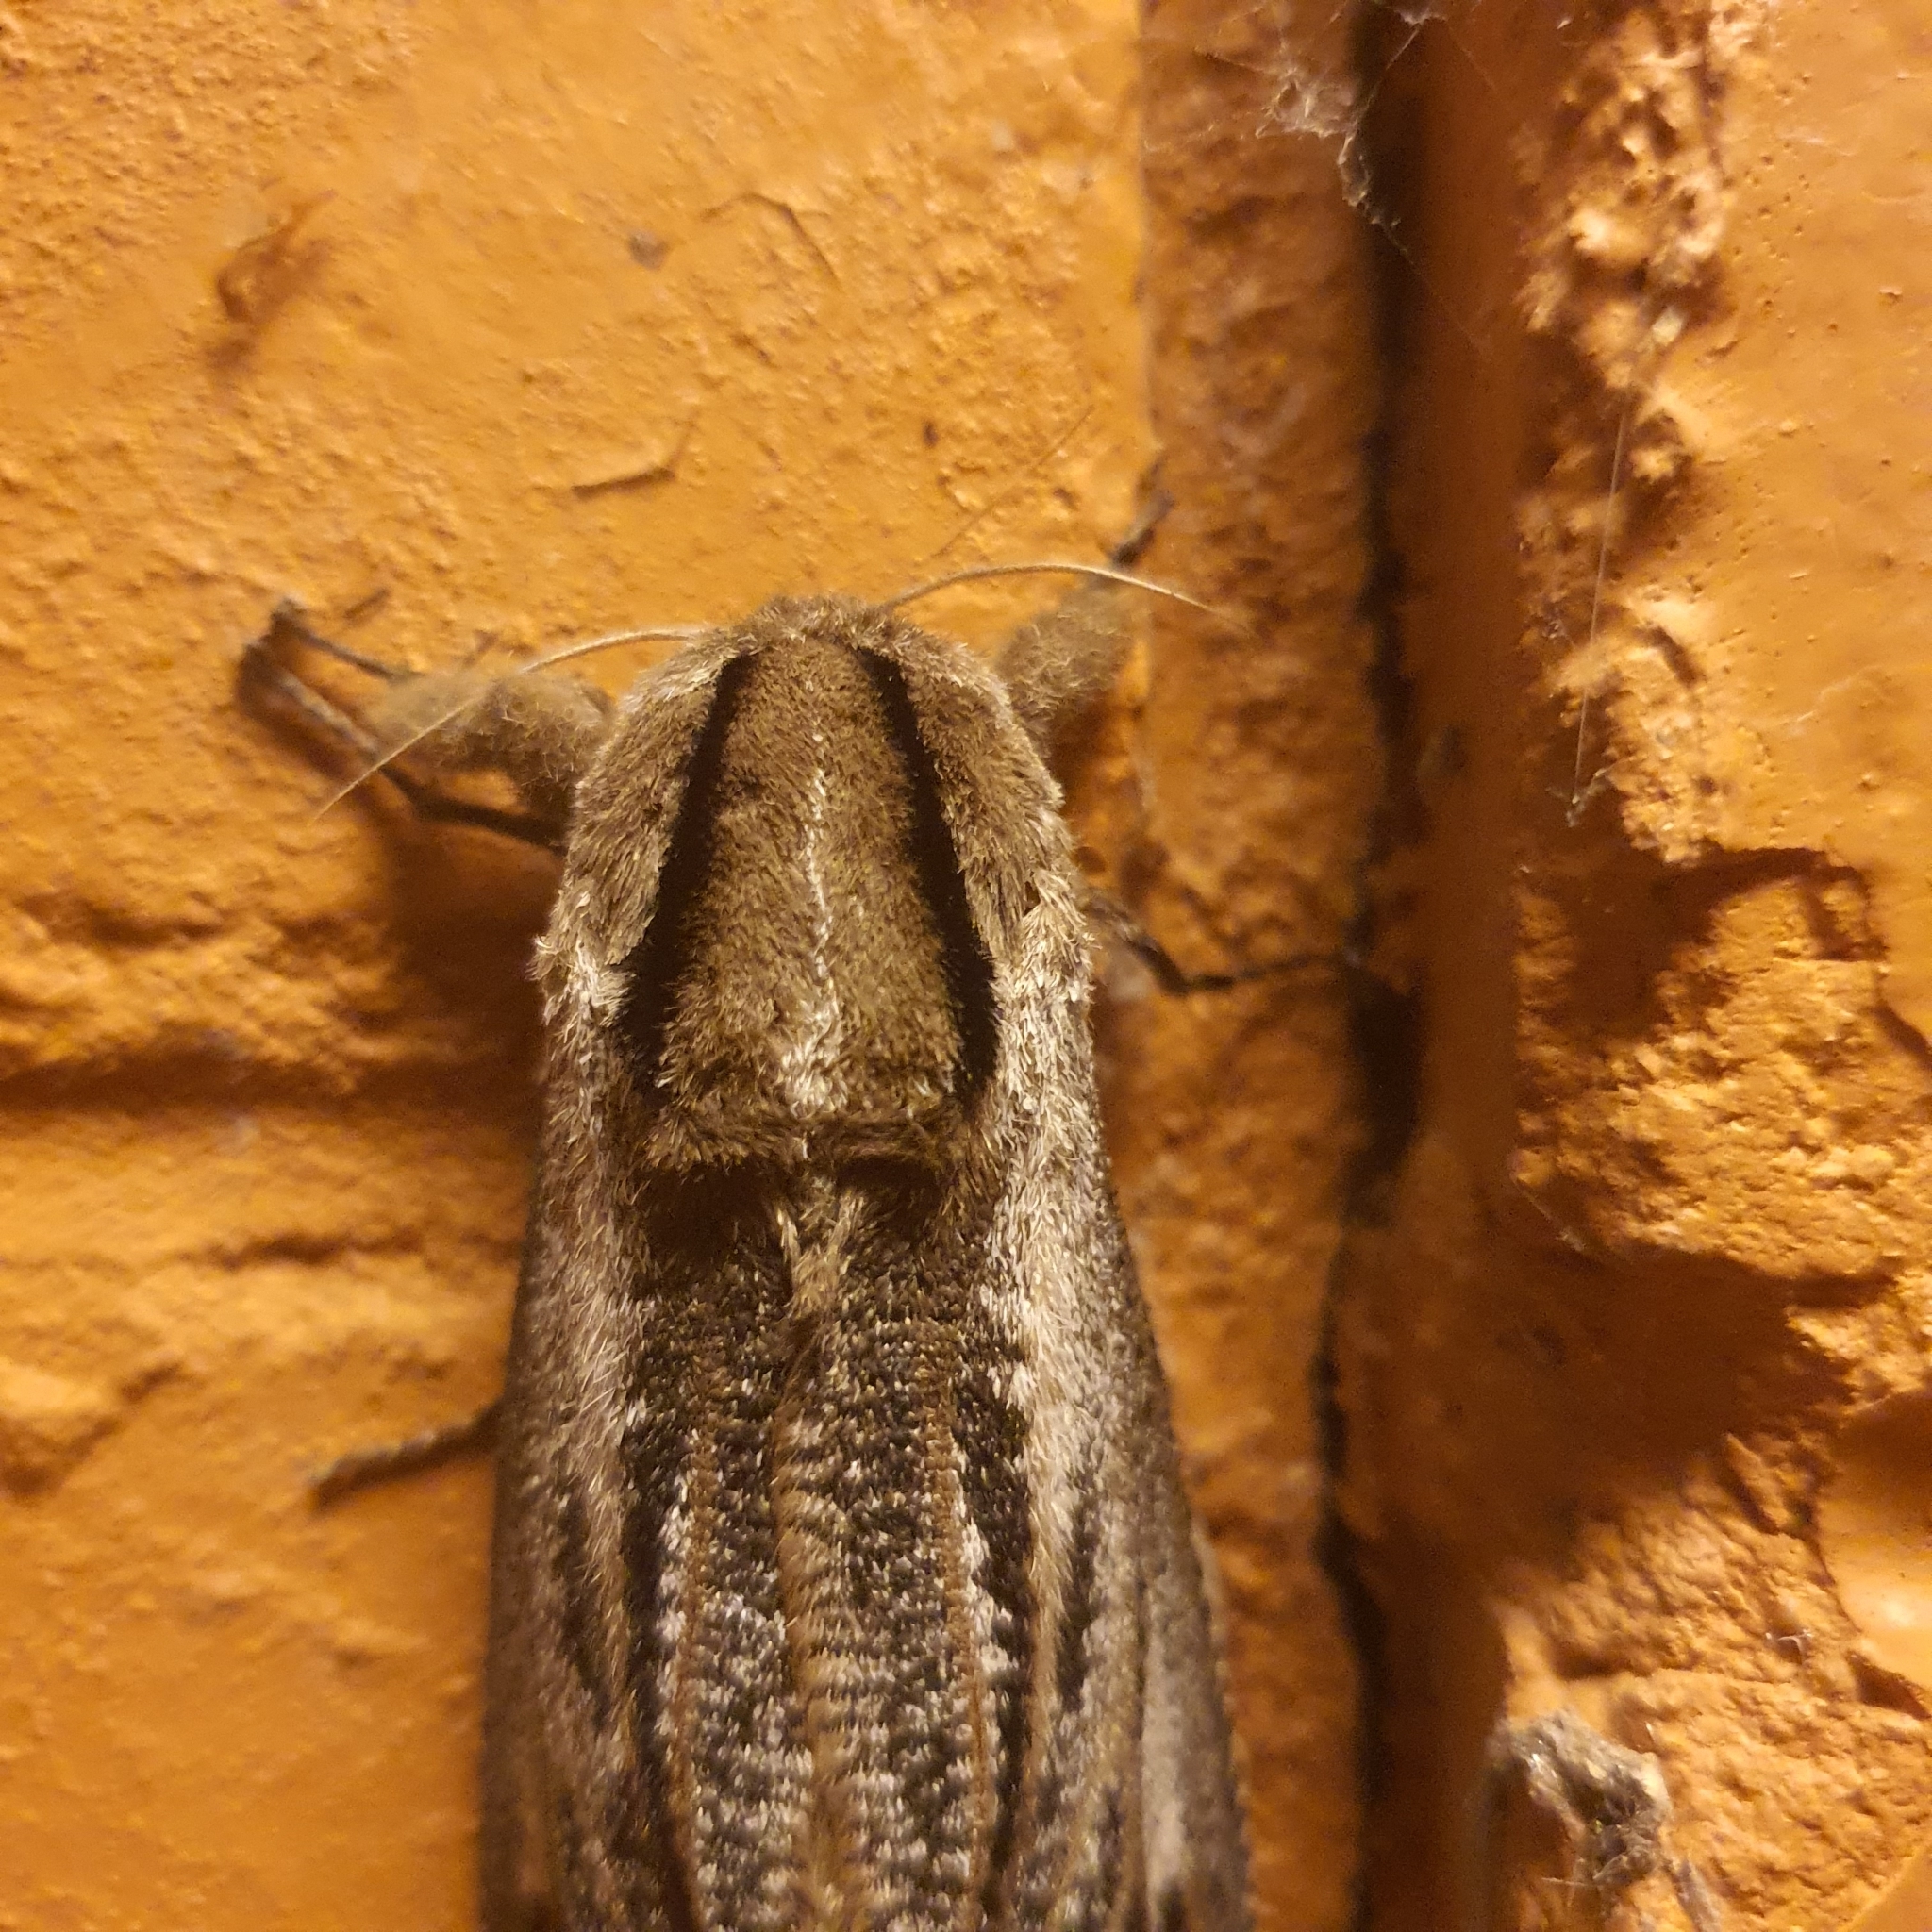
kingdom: Animalia
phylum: Arthropoda
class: Insecta
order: Lepidoptera
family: Cossidae
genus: Endoxyla
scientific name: Endoxyla liturata
